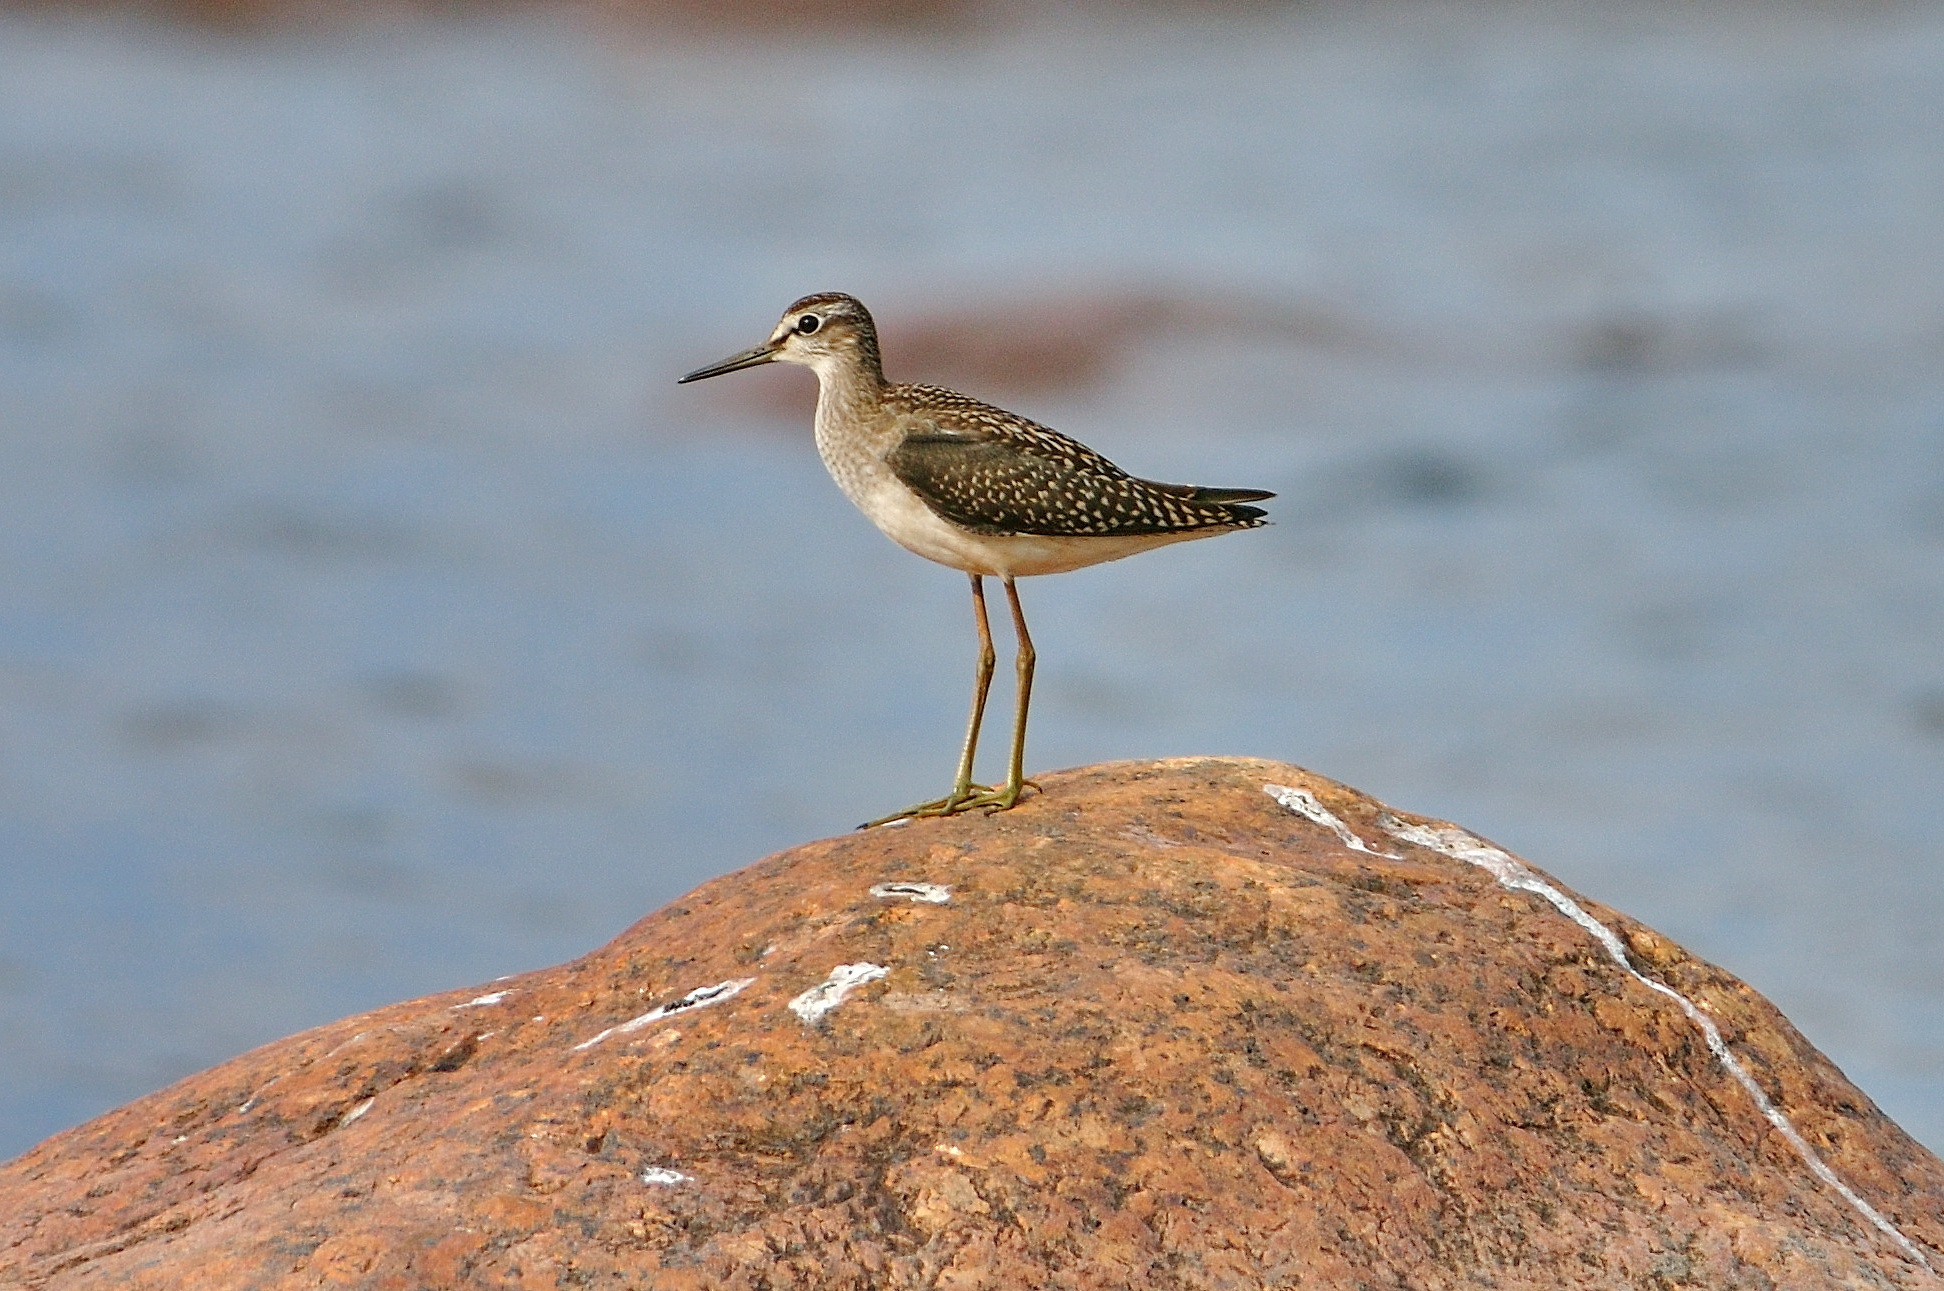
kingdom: Animalia
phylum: Chordata
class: Aves
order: Charadriiformes
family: Scolopacidae
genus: Tringa
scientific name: Tringa glareola
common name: Wood sandpiper
